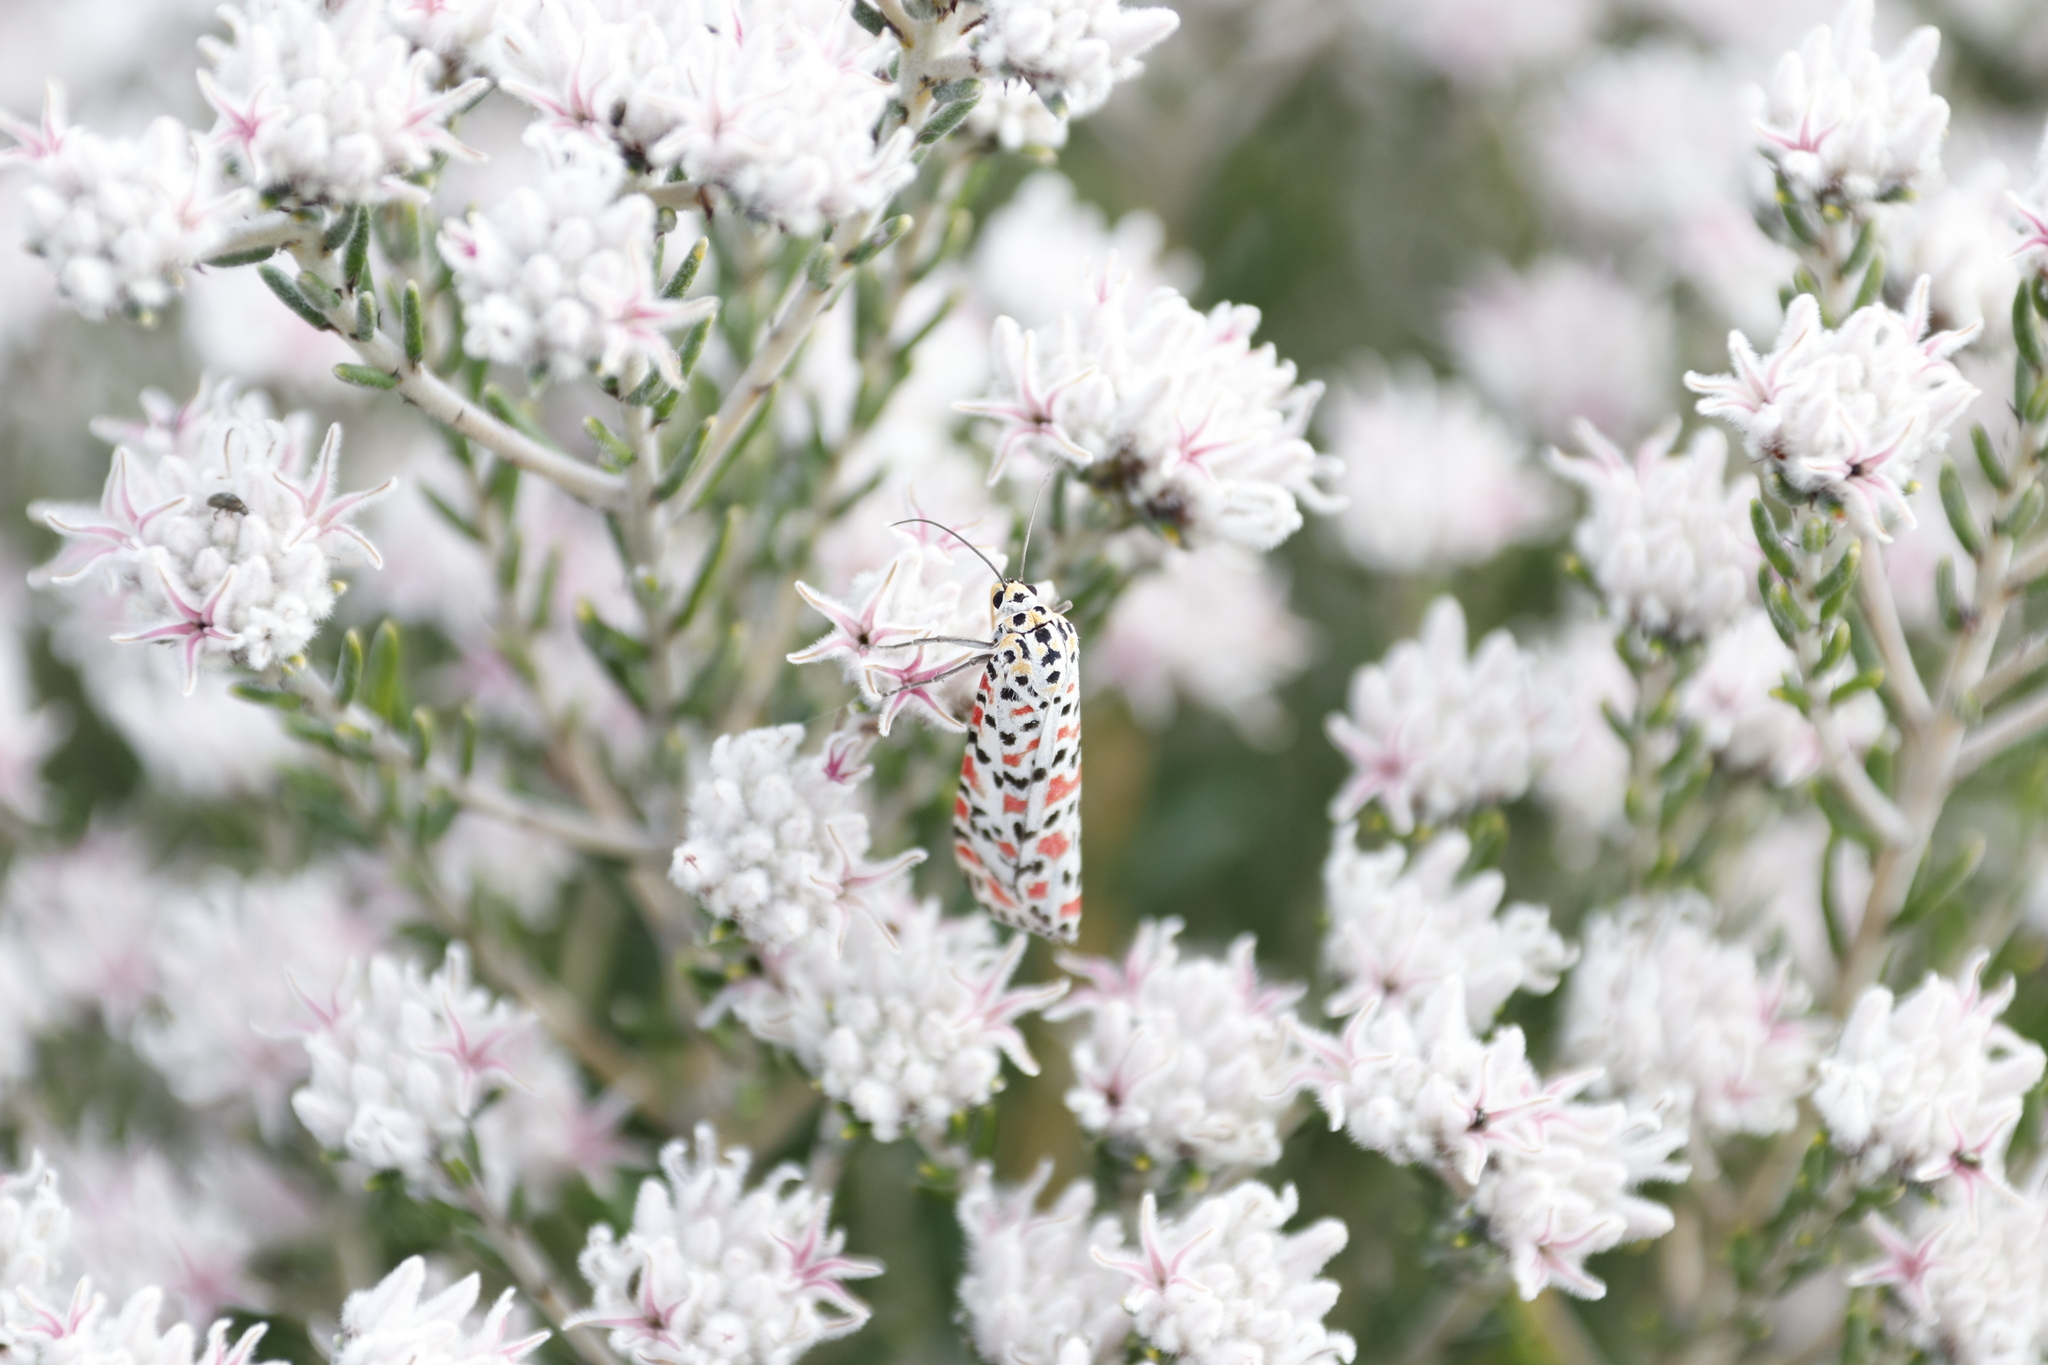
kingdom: Animalia
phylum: Arthropoda
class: Insecta
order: Lepidoptera
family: Erebidae
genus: Utetheisa
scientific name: Utetheisa pulchella
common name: Crimson speckled
